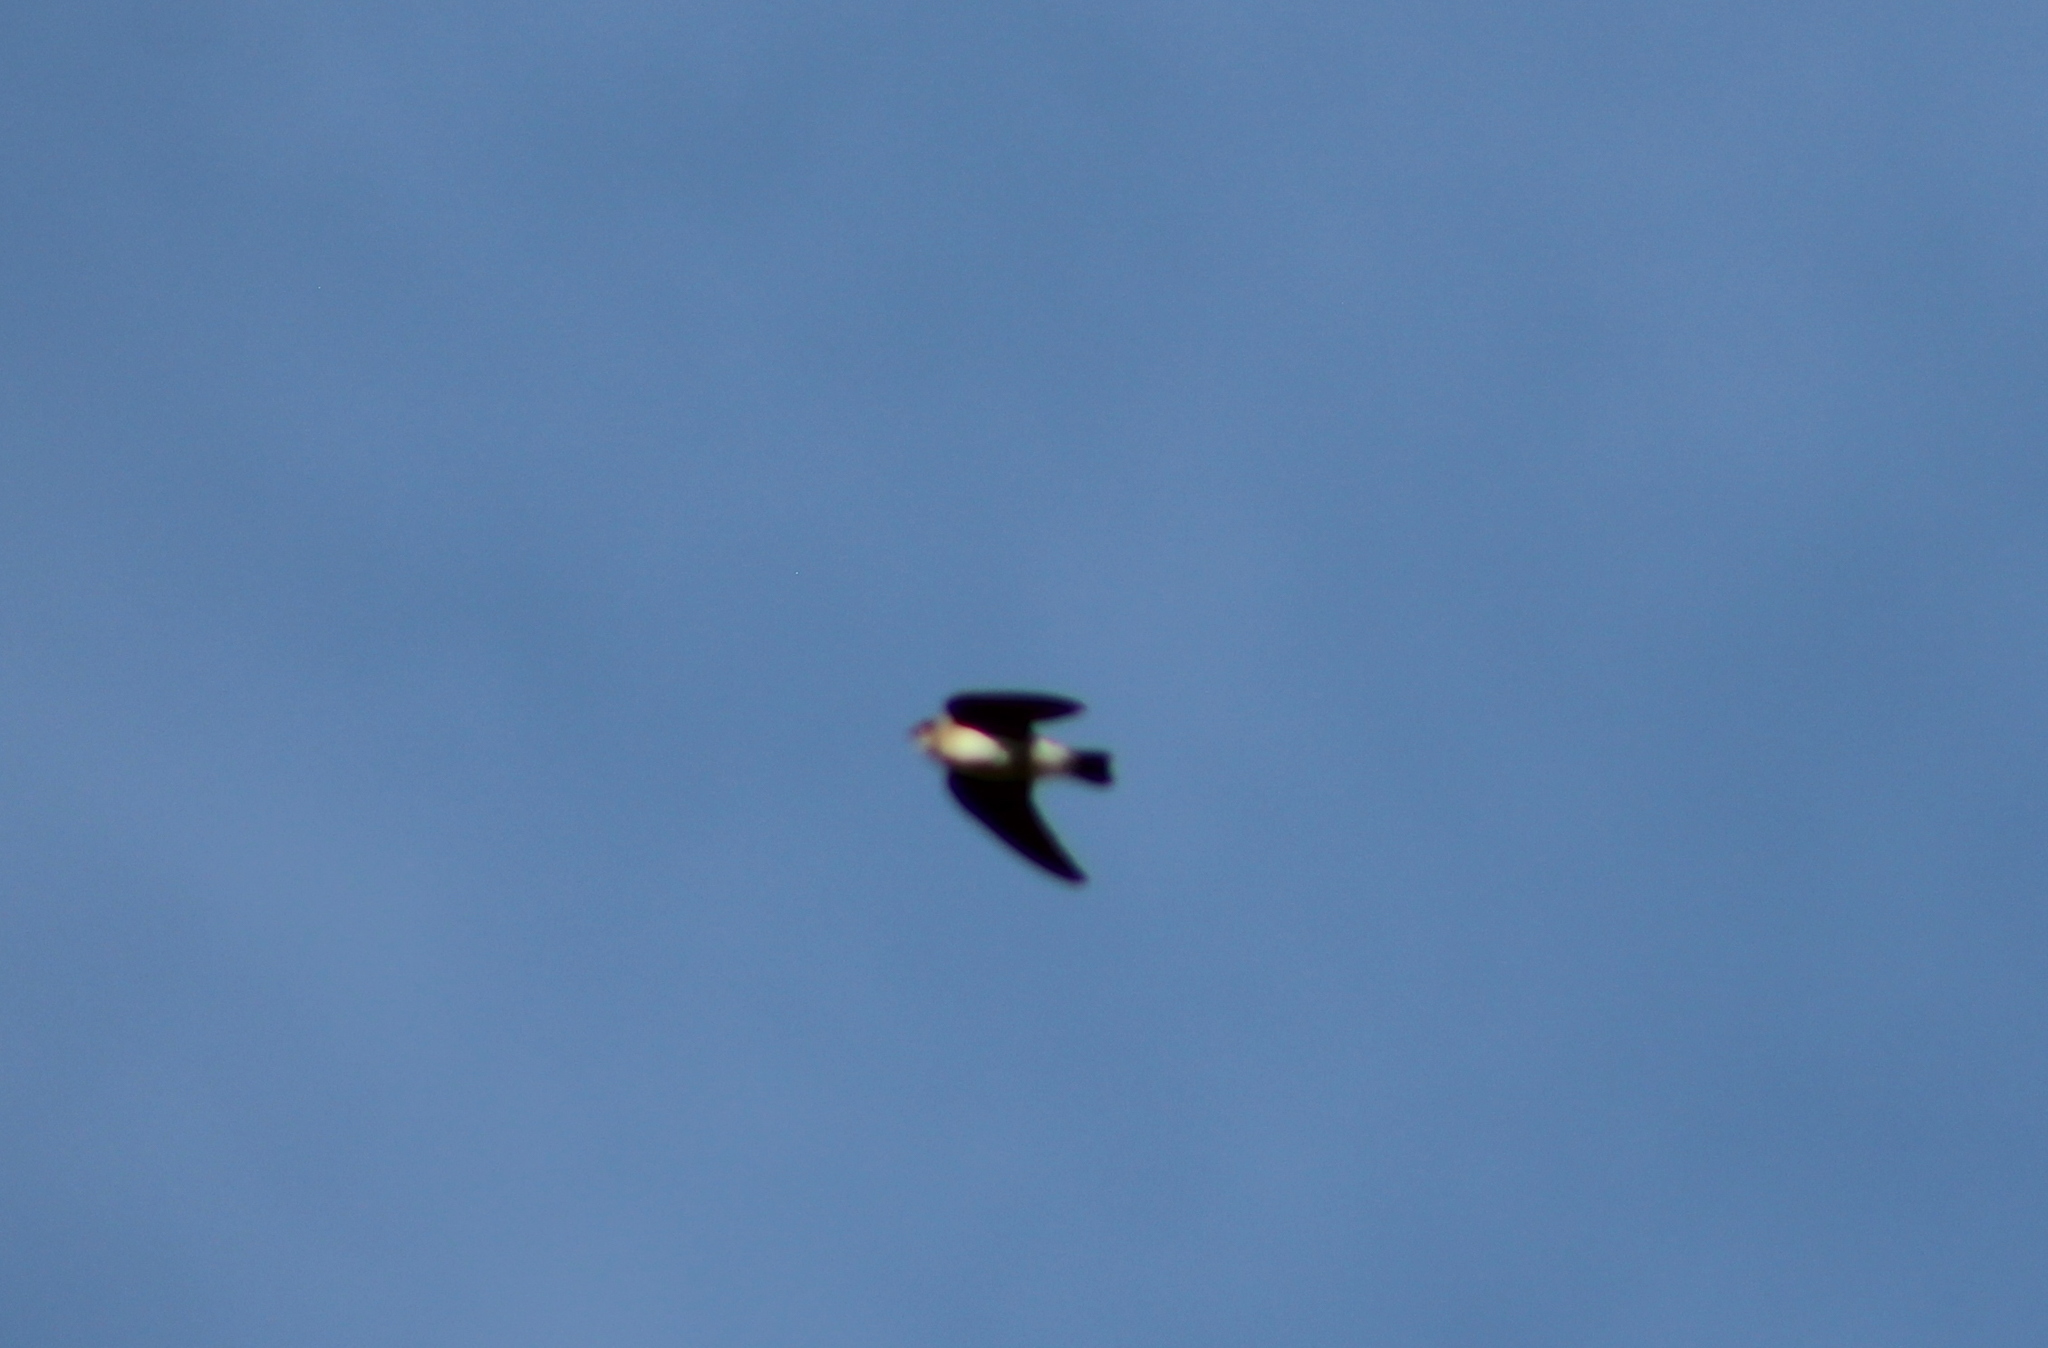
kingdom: Animalia
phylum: Chordata
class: Aves
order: Passeriformes
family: Hirundinidae
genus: Stelgidopteryx
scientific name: Stelgidopteryx serripennis
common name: Northern rough-winged swallow
